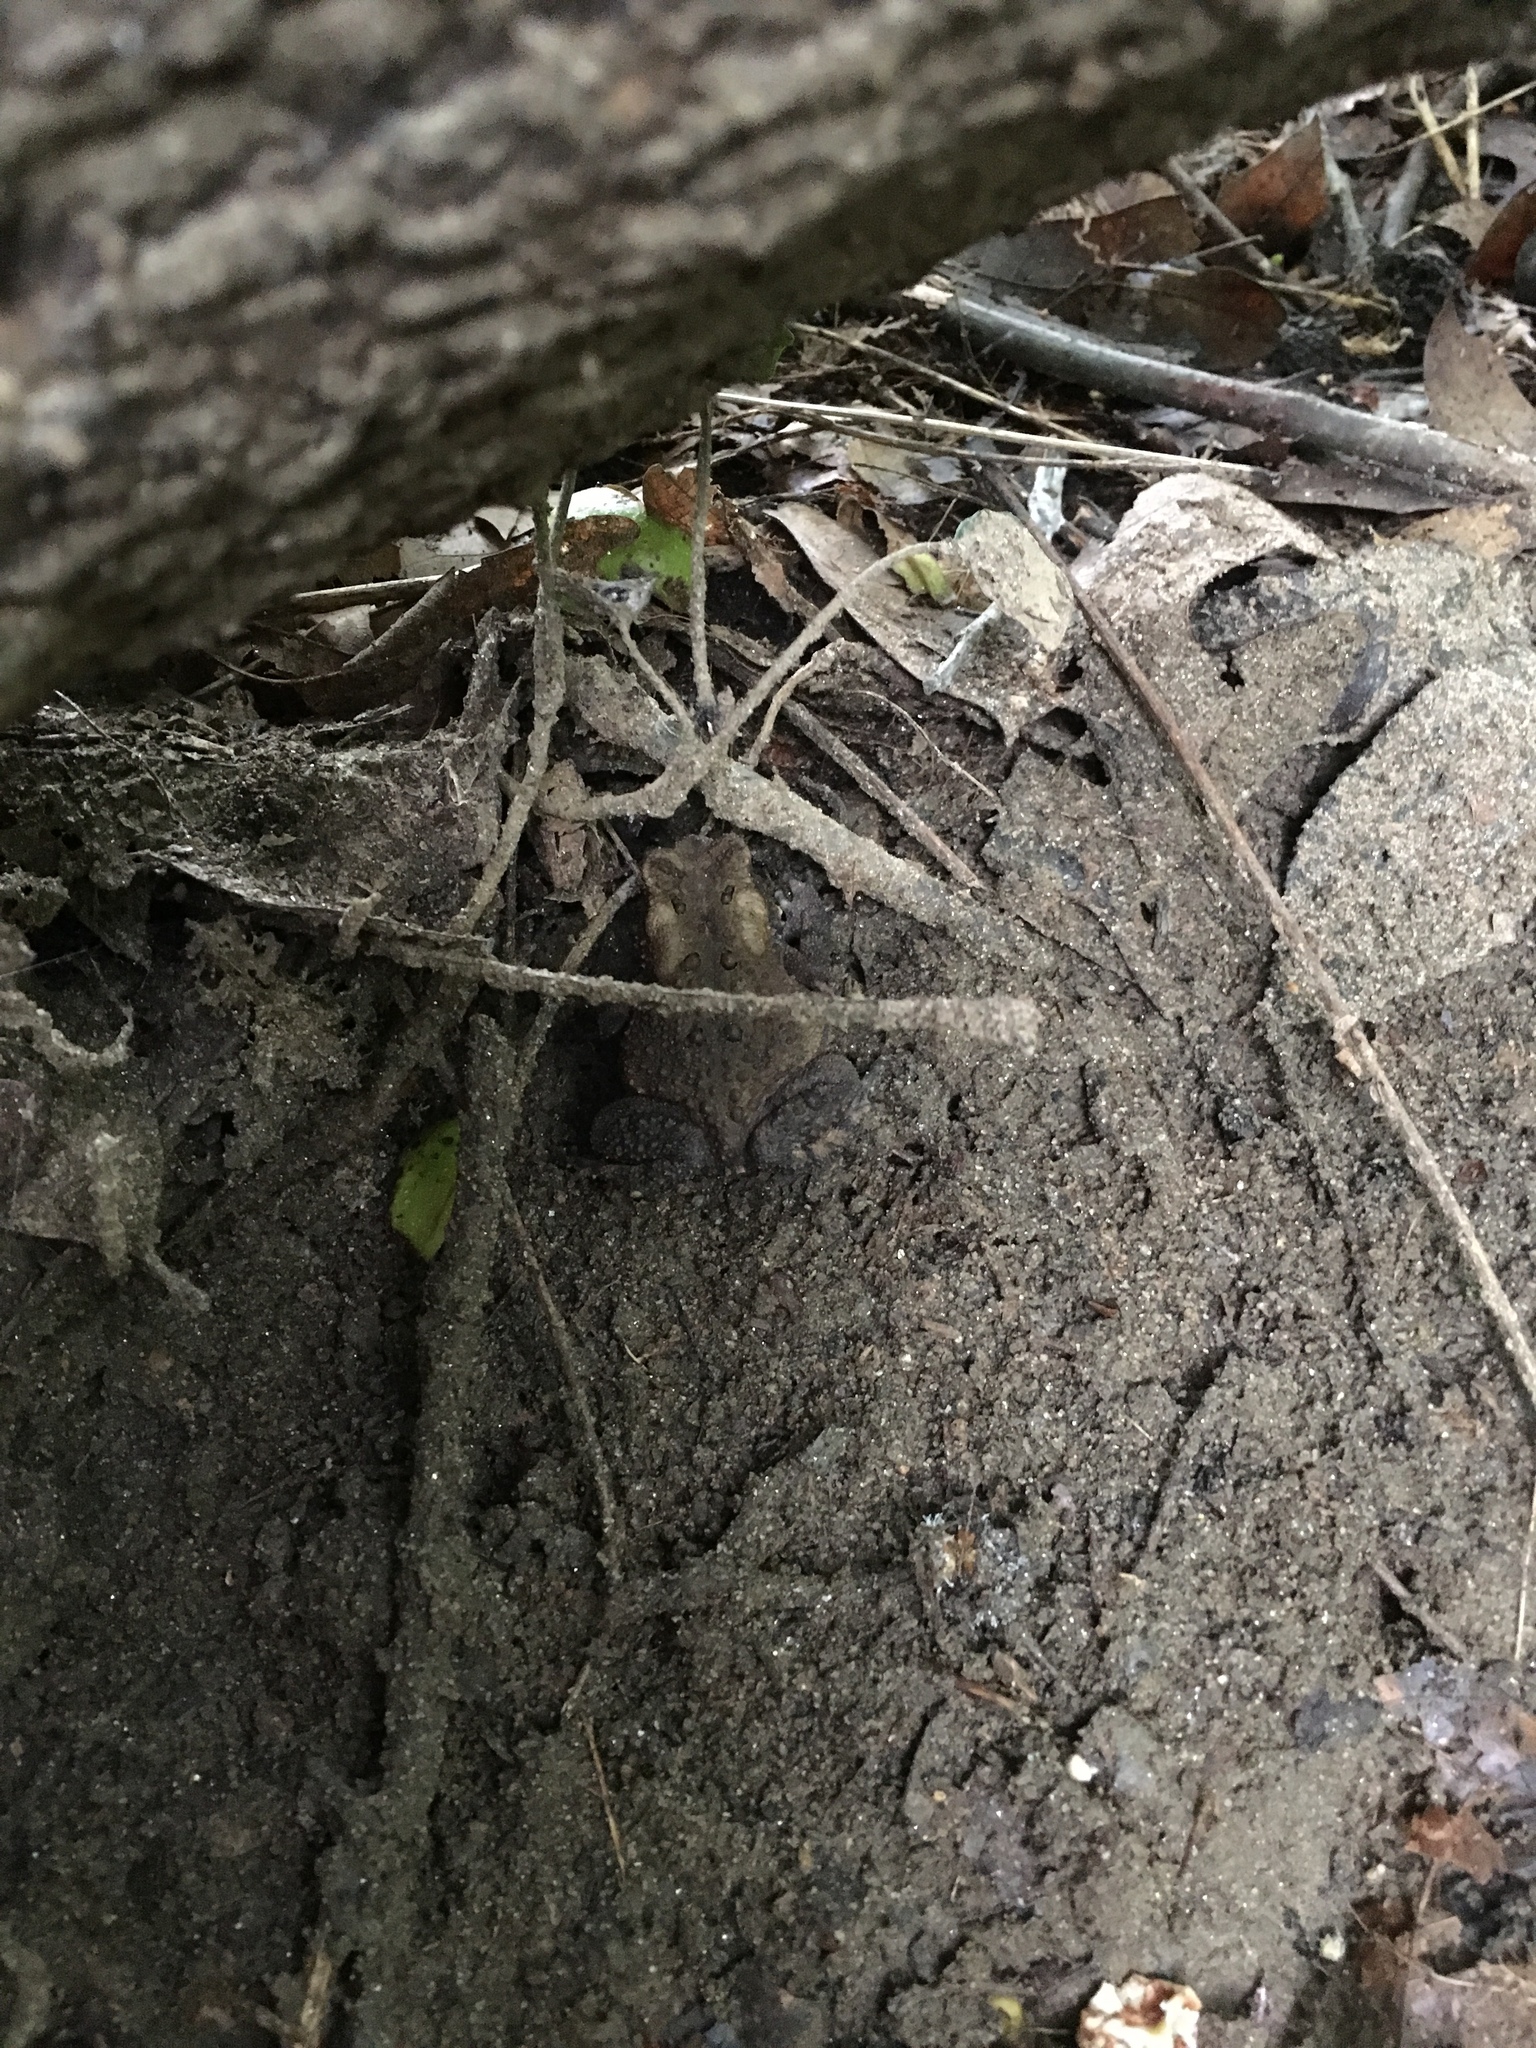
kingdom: Animalia
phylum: Chordata
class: Amphibia
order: Anura
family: Bufonidae
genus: Anaxyrus
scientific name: Anaxyrus americanus
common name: American toad
